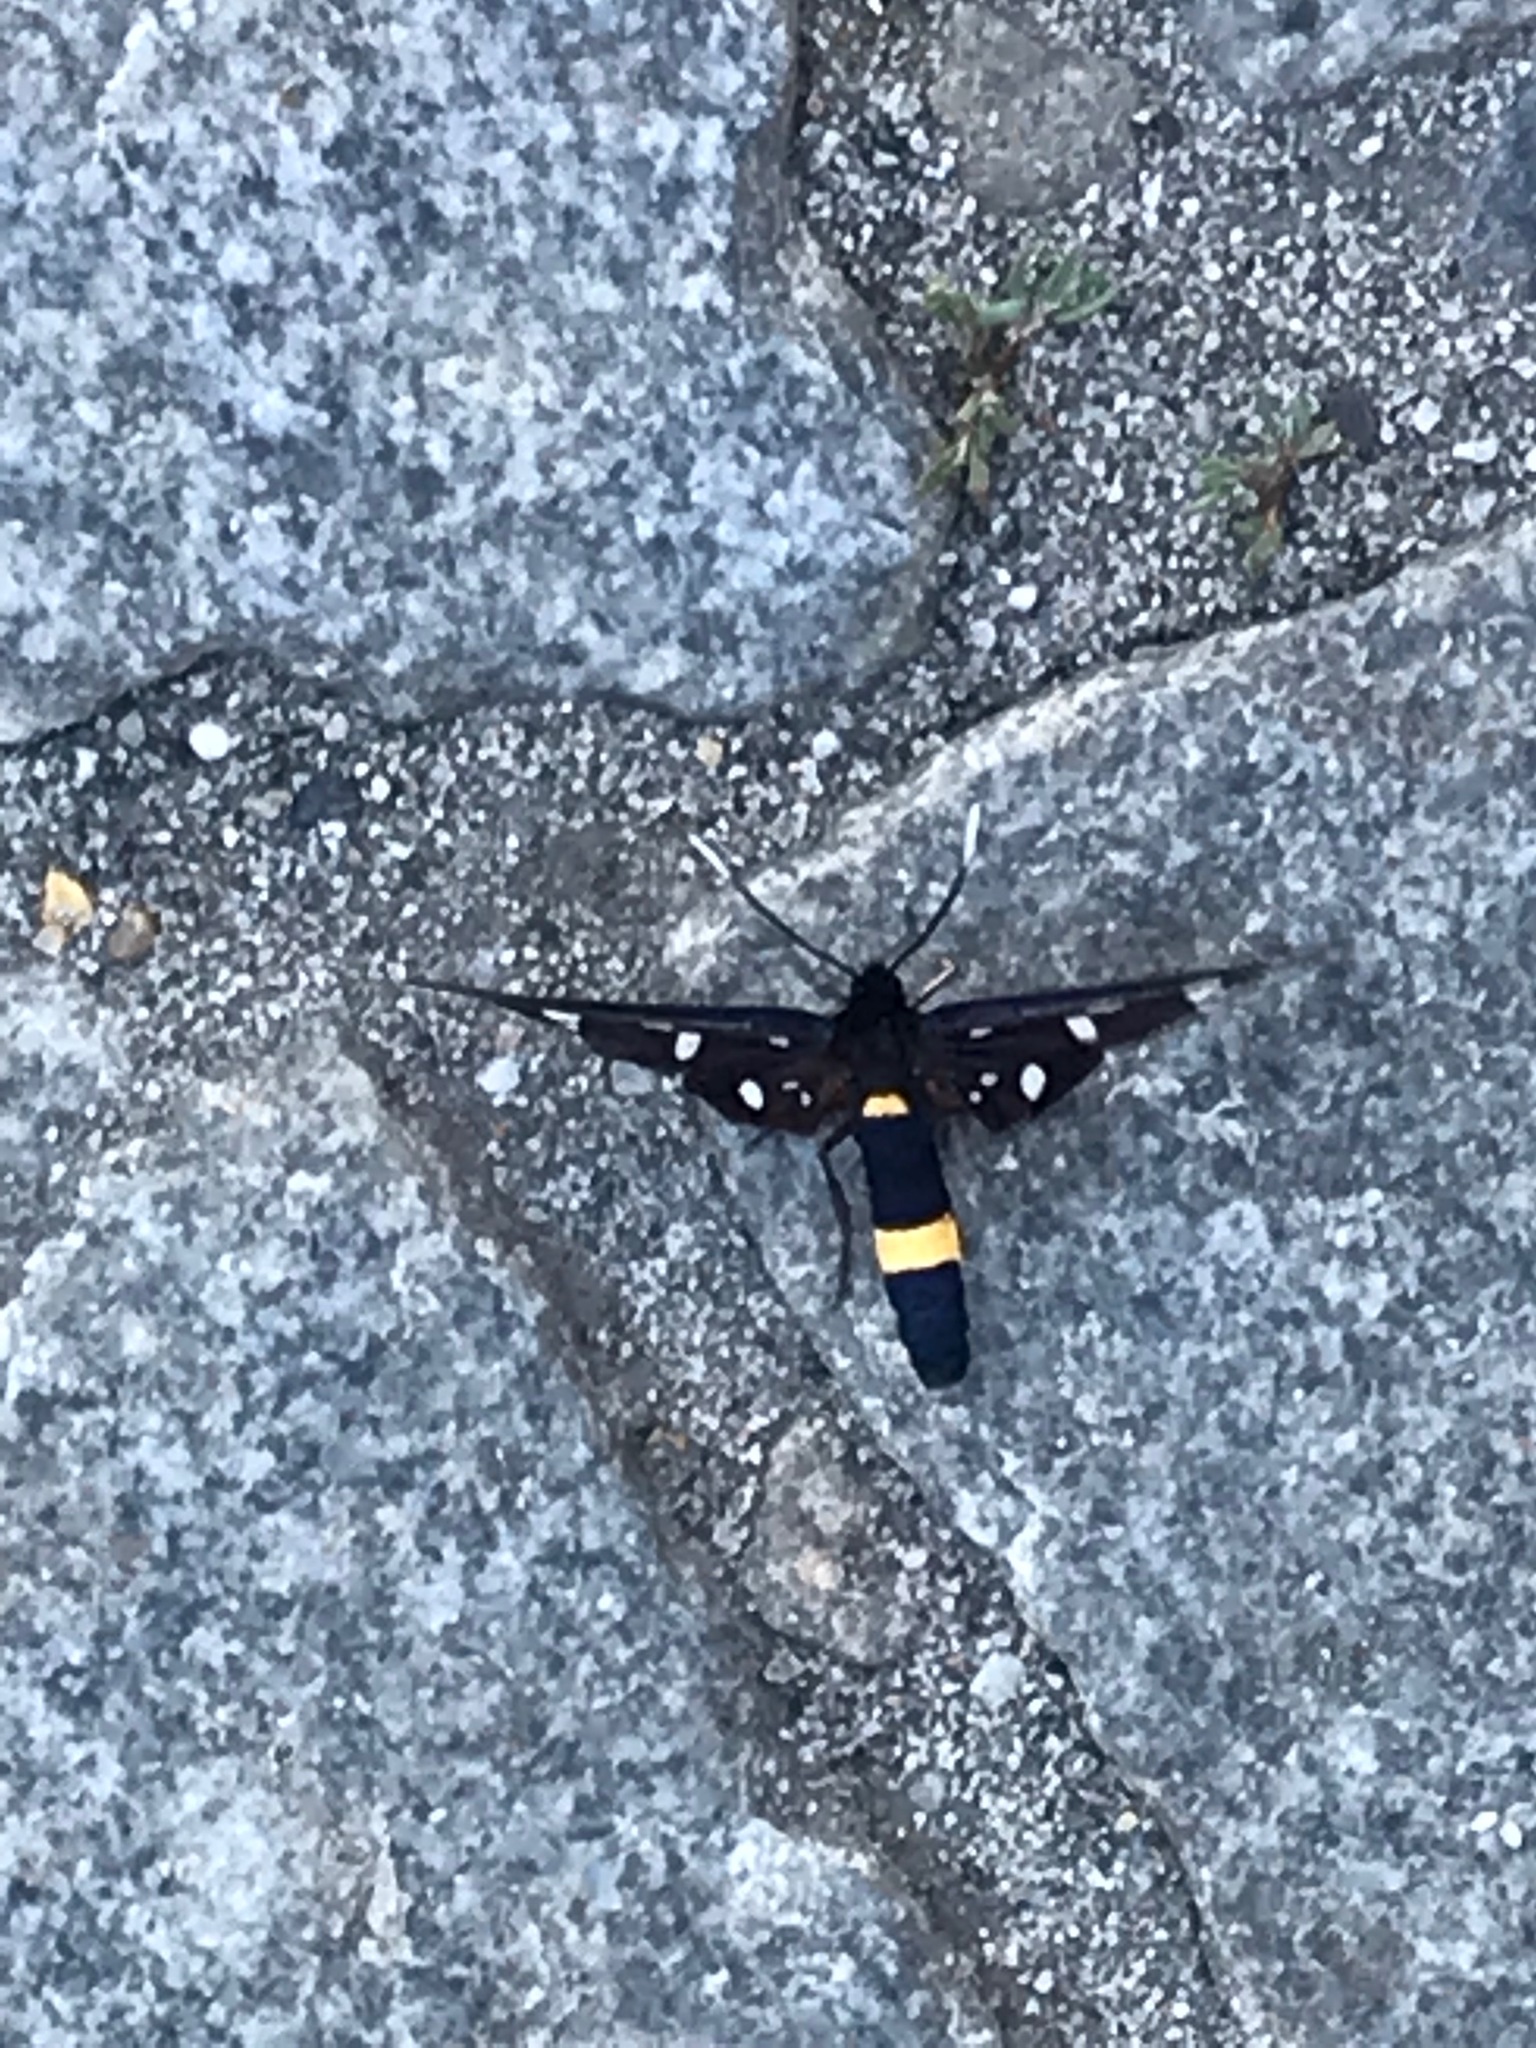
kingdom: Animalia
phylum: Arthropoda
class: Insecta
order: Lepidoptera
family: Erebidae
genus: Amata
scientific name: Amata phegea
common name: Nine-spotted
